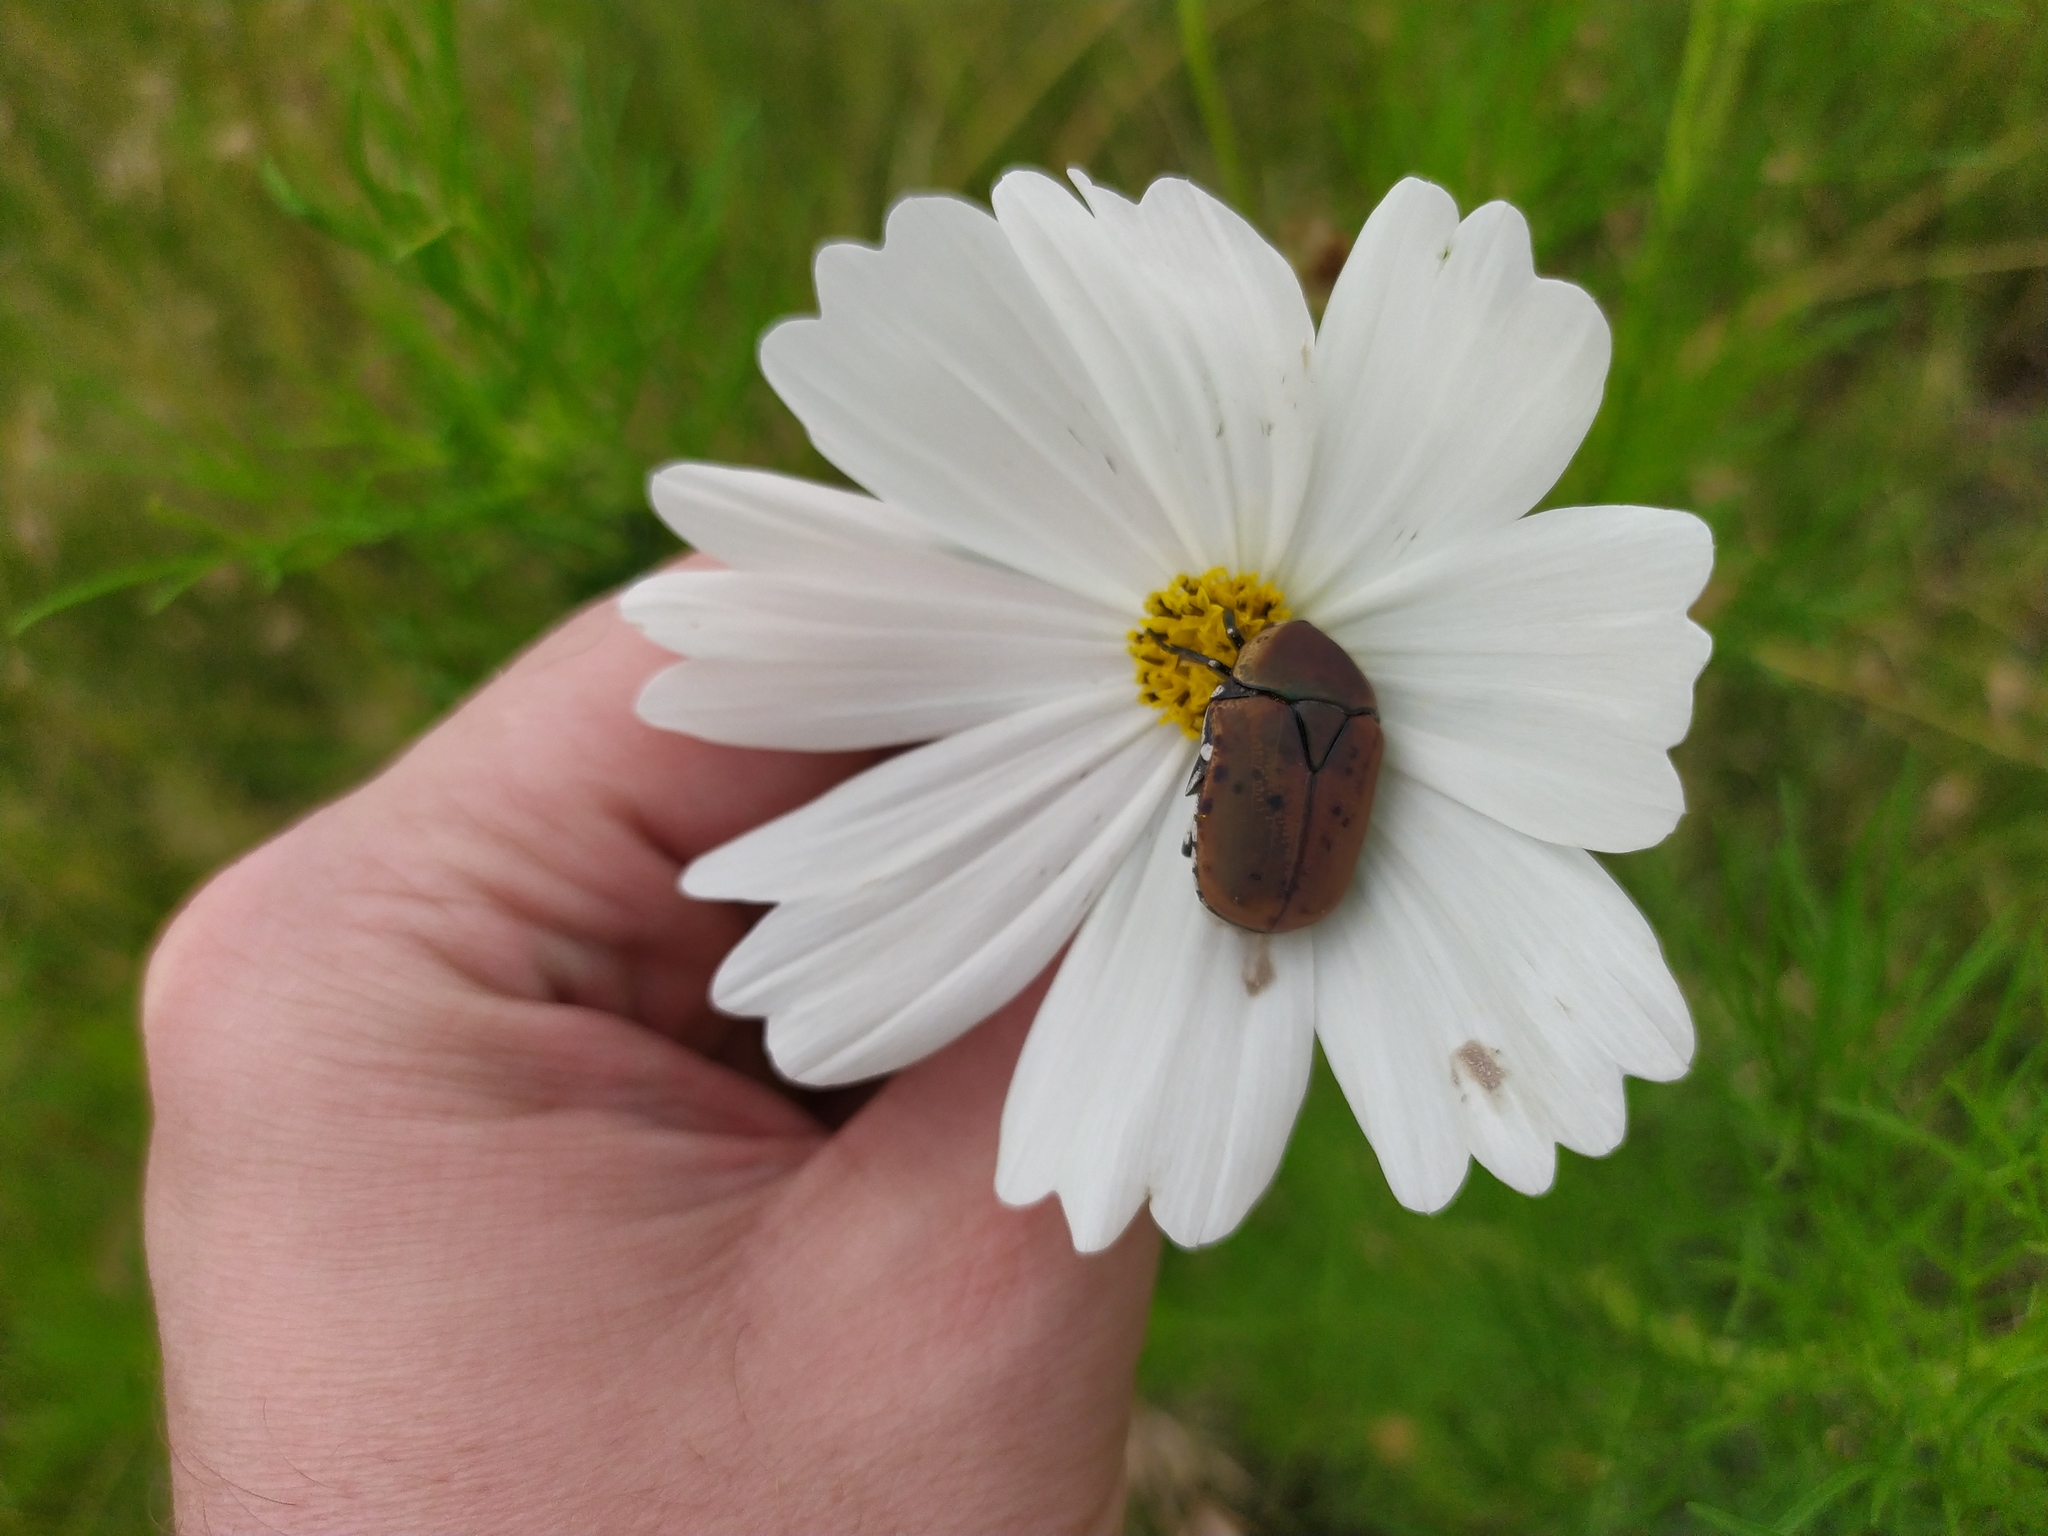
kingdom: Animalia
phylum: Arthropoda
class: Insecta
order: Coleoptera
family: Scarabaeidae
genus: Dischista
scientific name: Dischista rufa
